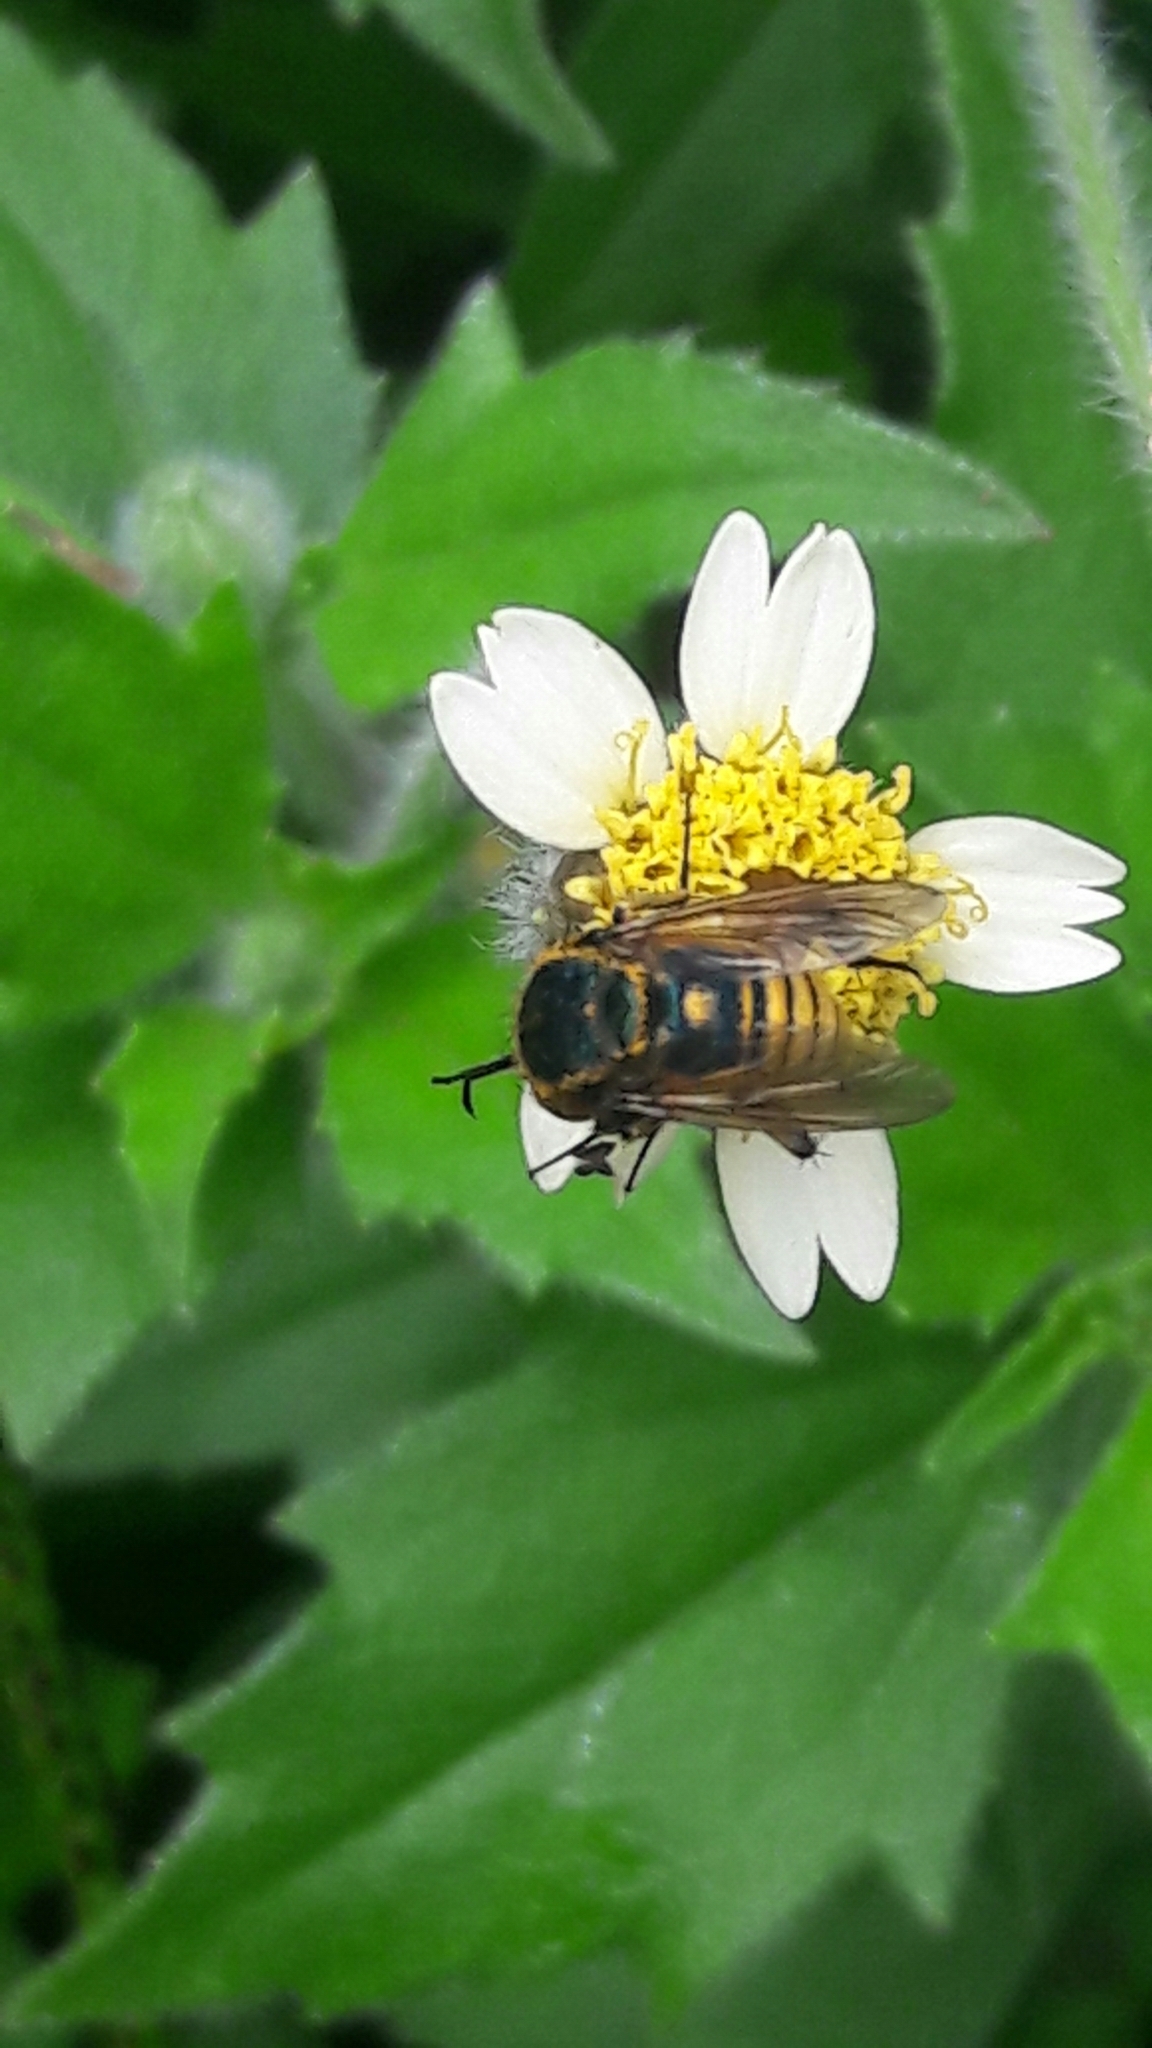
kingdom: Animalia
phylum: Arthropoda
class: Insecta
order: Diptera
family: Bombyliidae
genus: Toxophora
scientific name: Toxophora aurea
